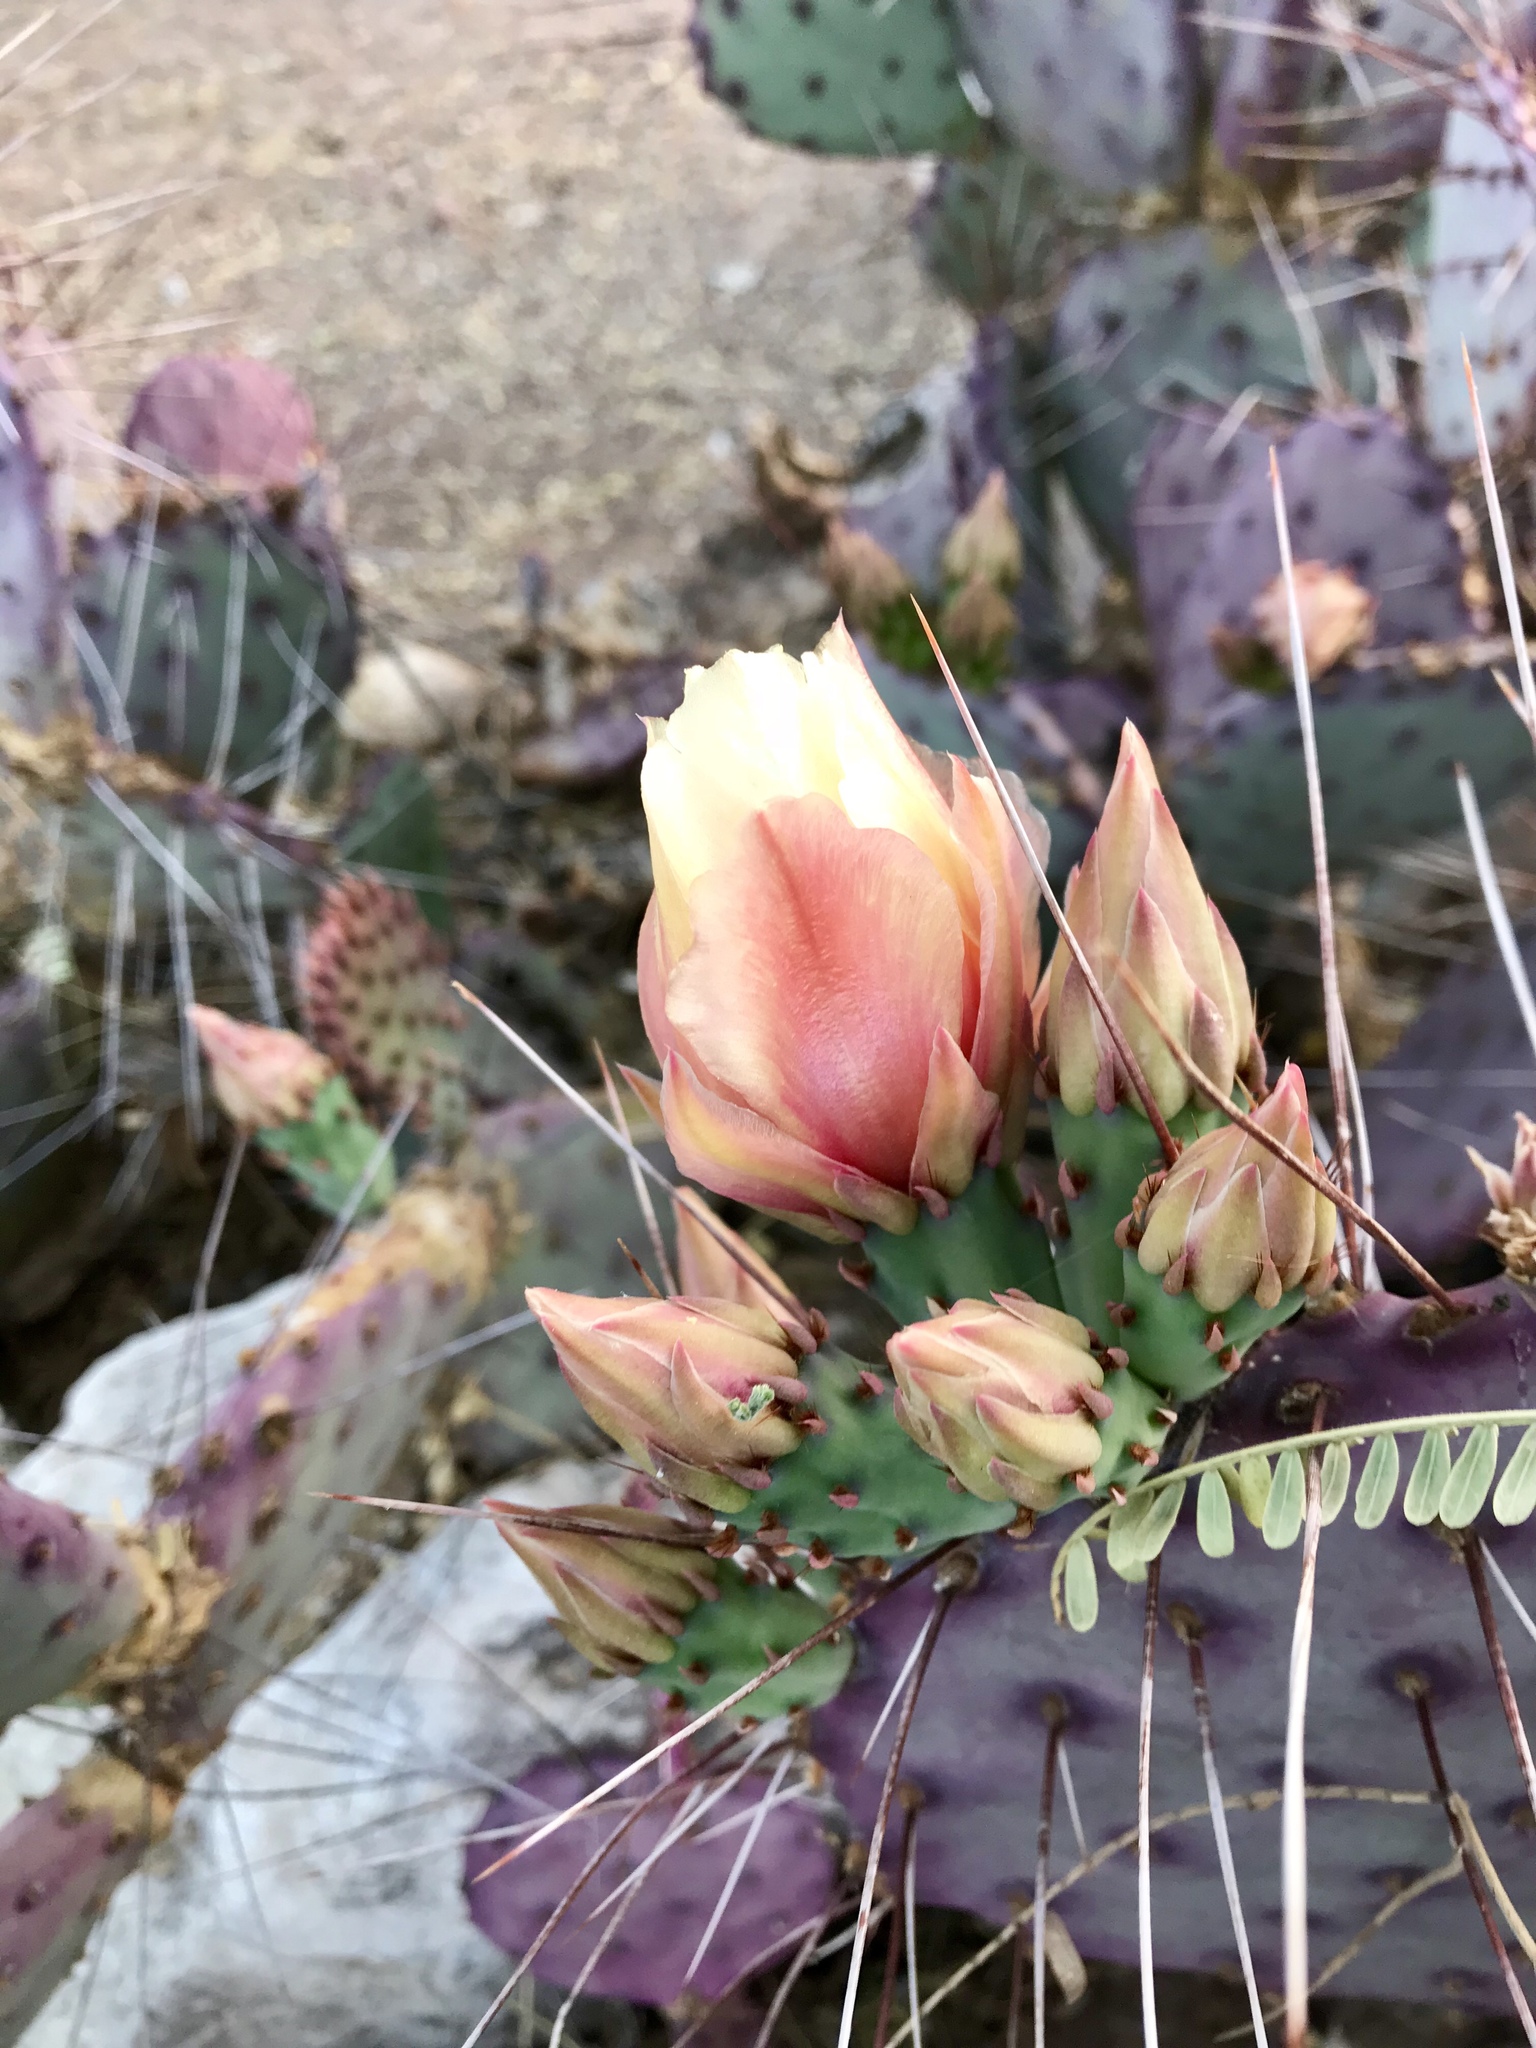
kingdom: Plantae
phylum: Tracheophyta
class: Magnoliopsida
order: Caryophyllales
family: Cactaceae
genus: Opuntia
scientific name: Opuntia macrocentra
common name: Purple prickly-pear
